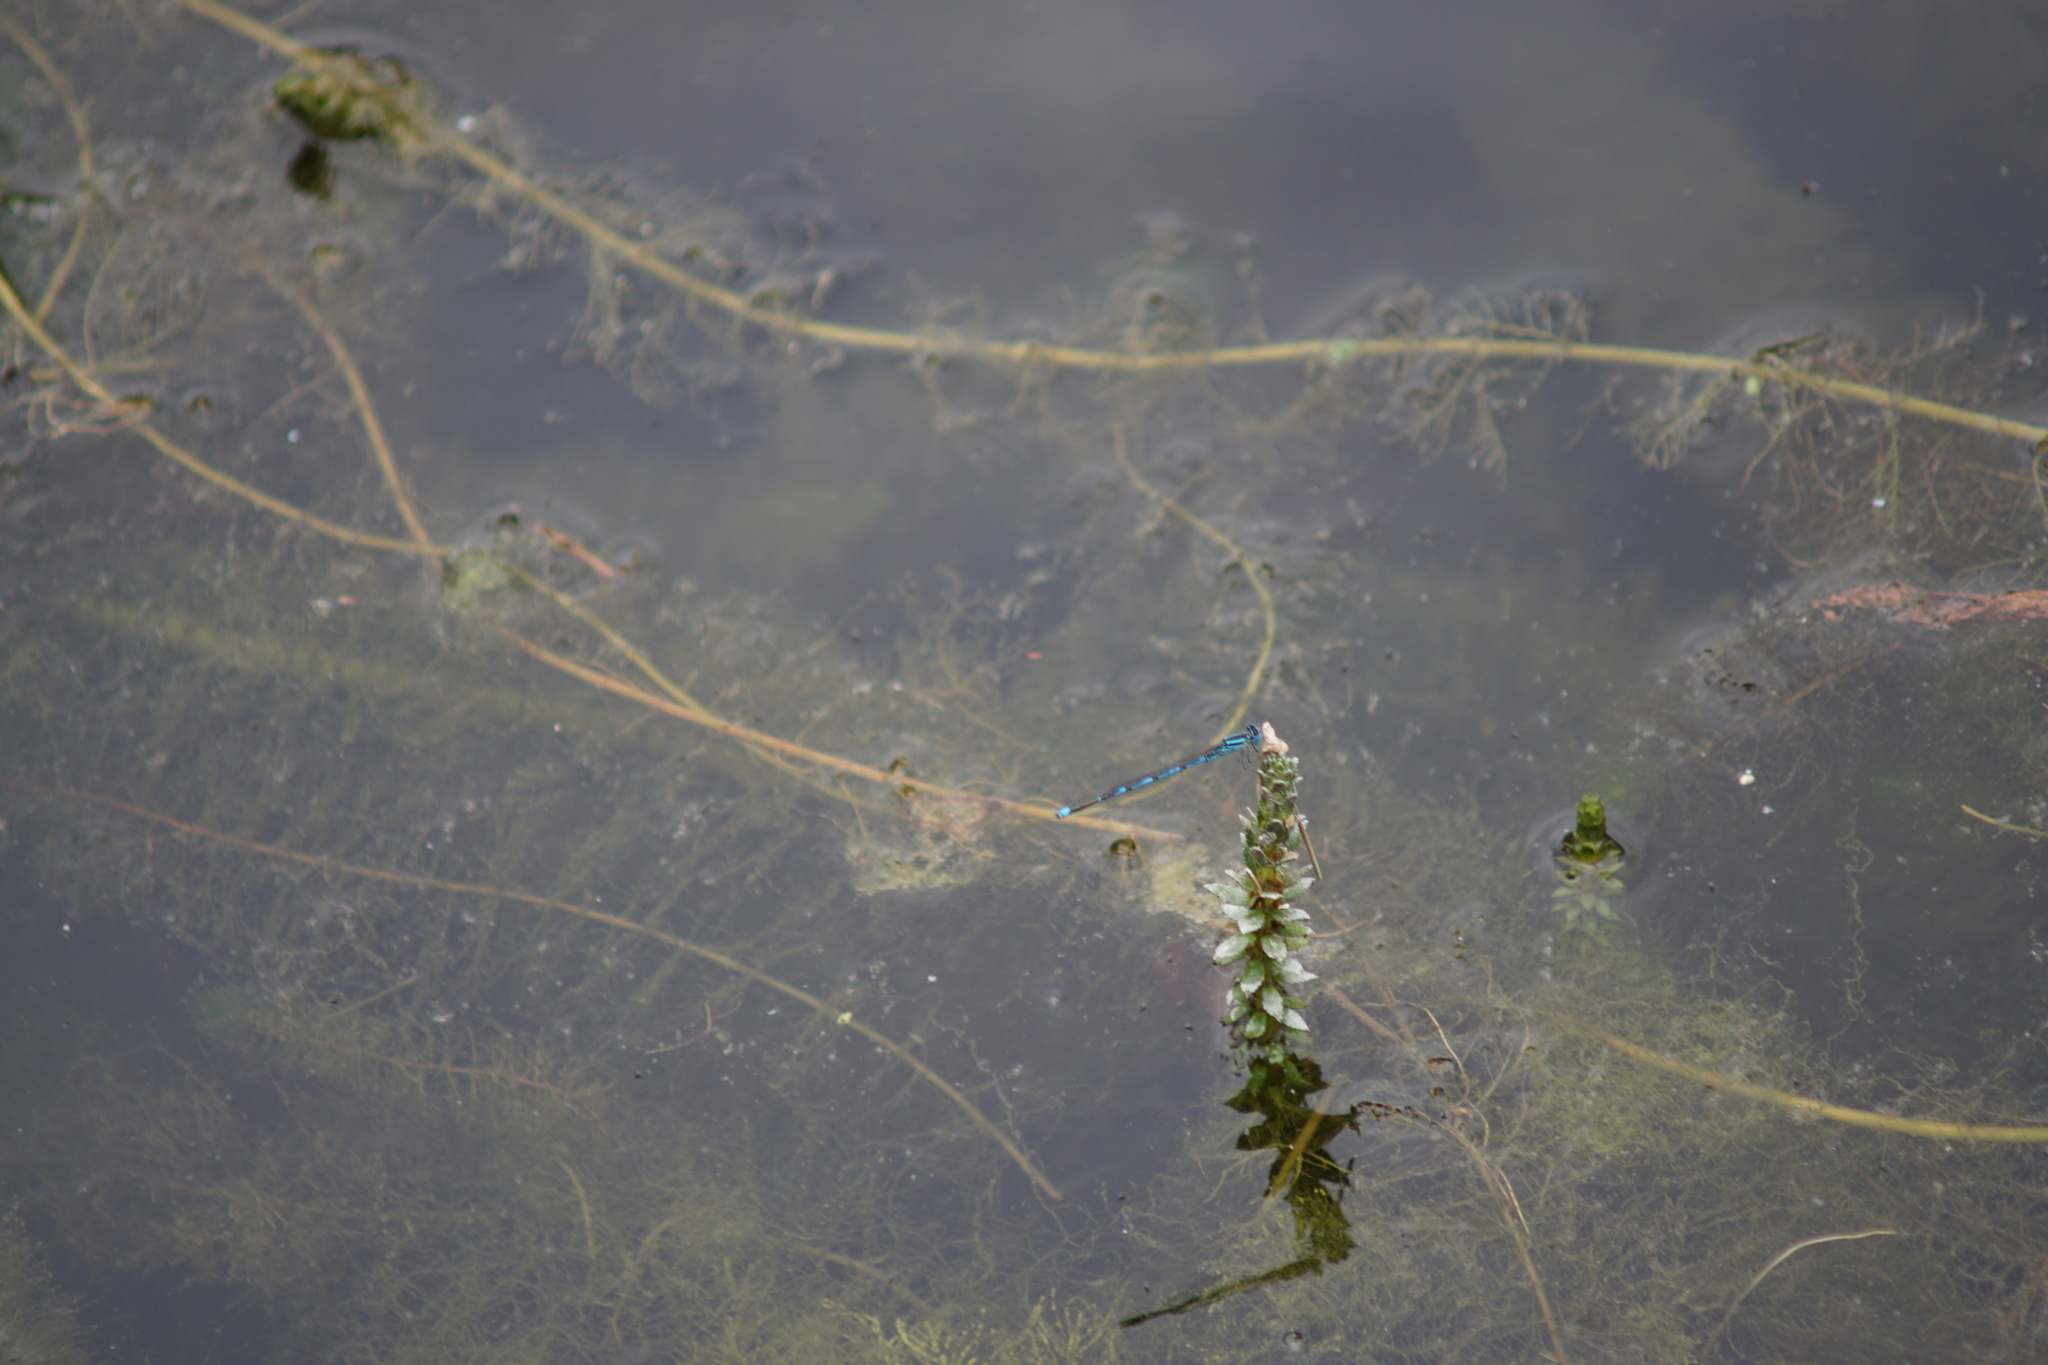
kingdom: Animalia
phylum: Arthropoda
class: Insecta
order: Odonata
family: Coenagrionidae
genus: Erythromma
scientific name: Erythromma lindenii
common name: Blue-eye
